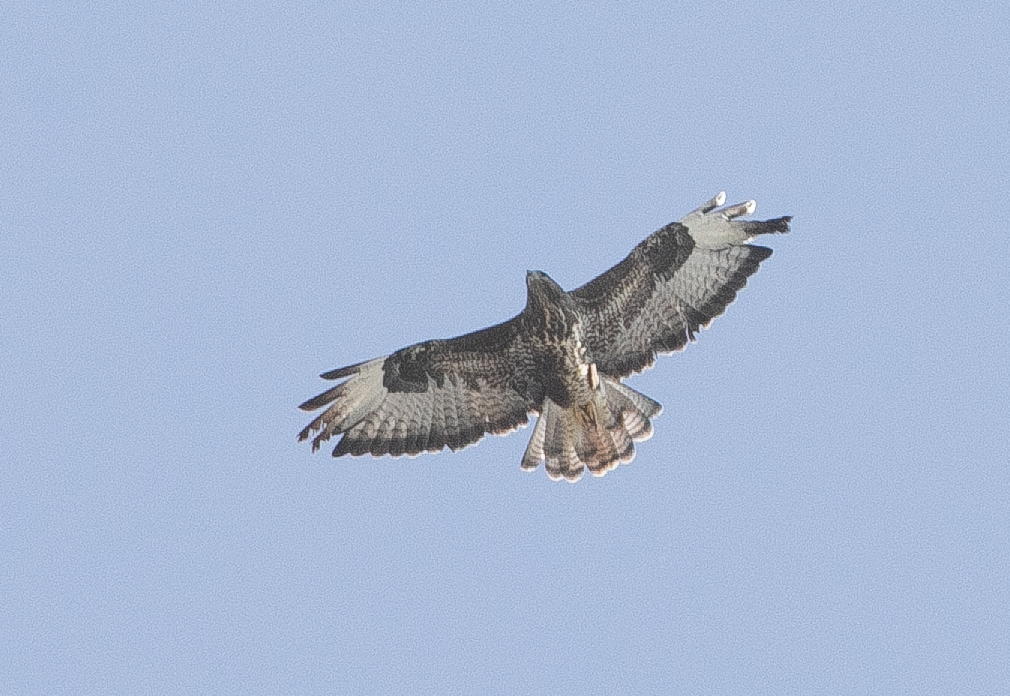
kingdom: Animalia
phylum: Chordata
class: Aves
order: Accipitriformes
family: Accipitridae
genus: Buteo
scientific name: Buteo buteo
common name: Common buzzard
